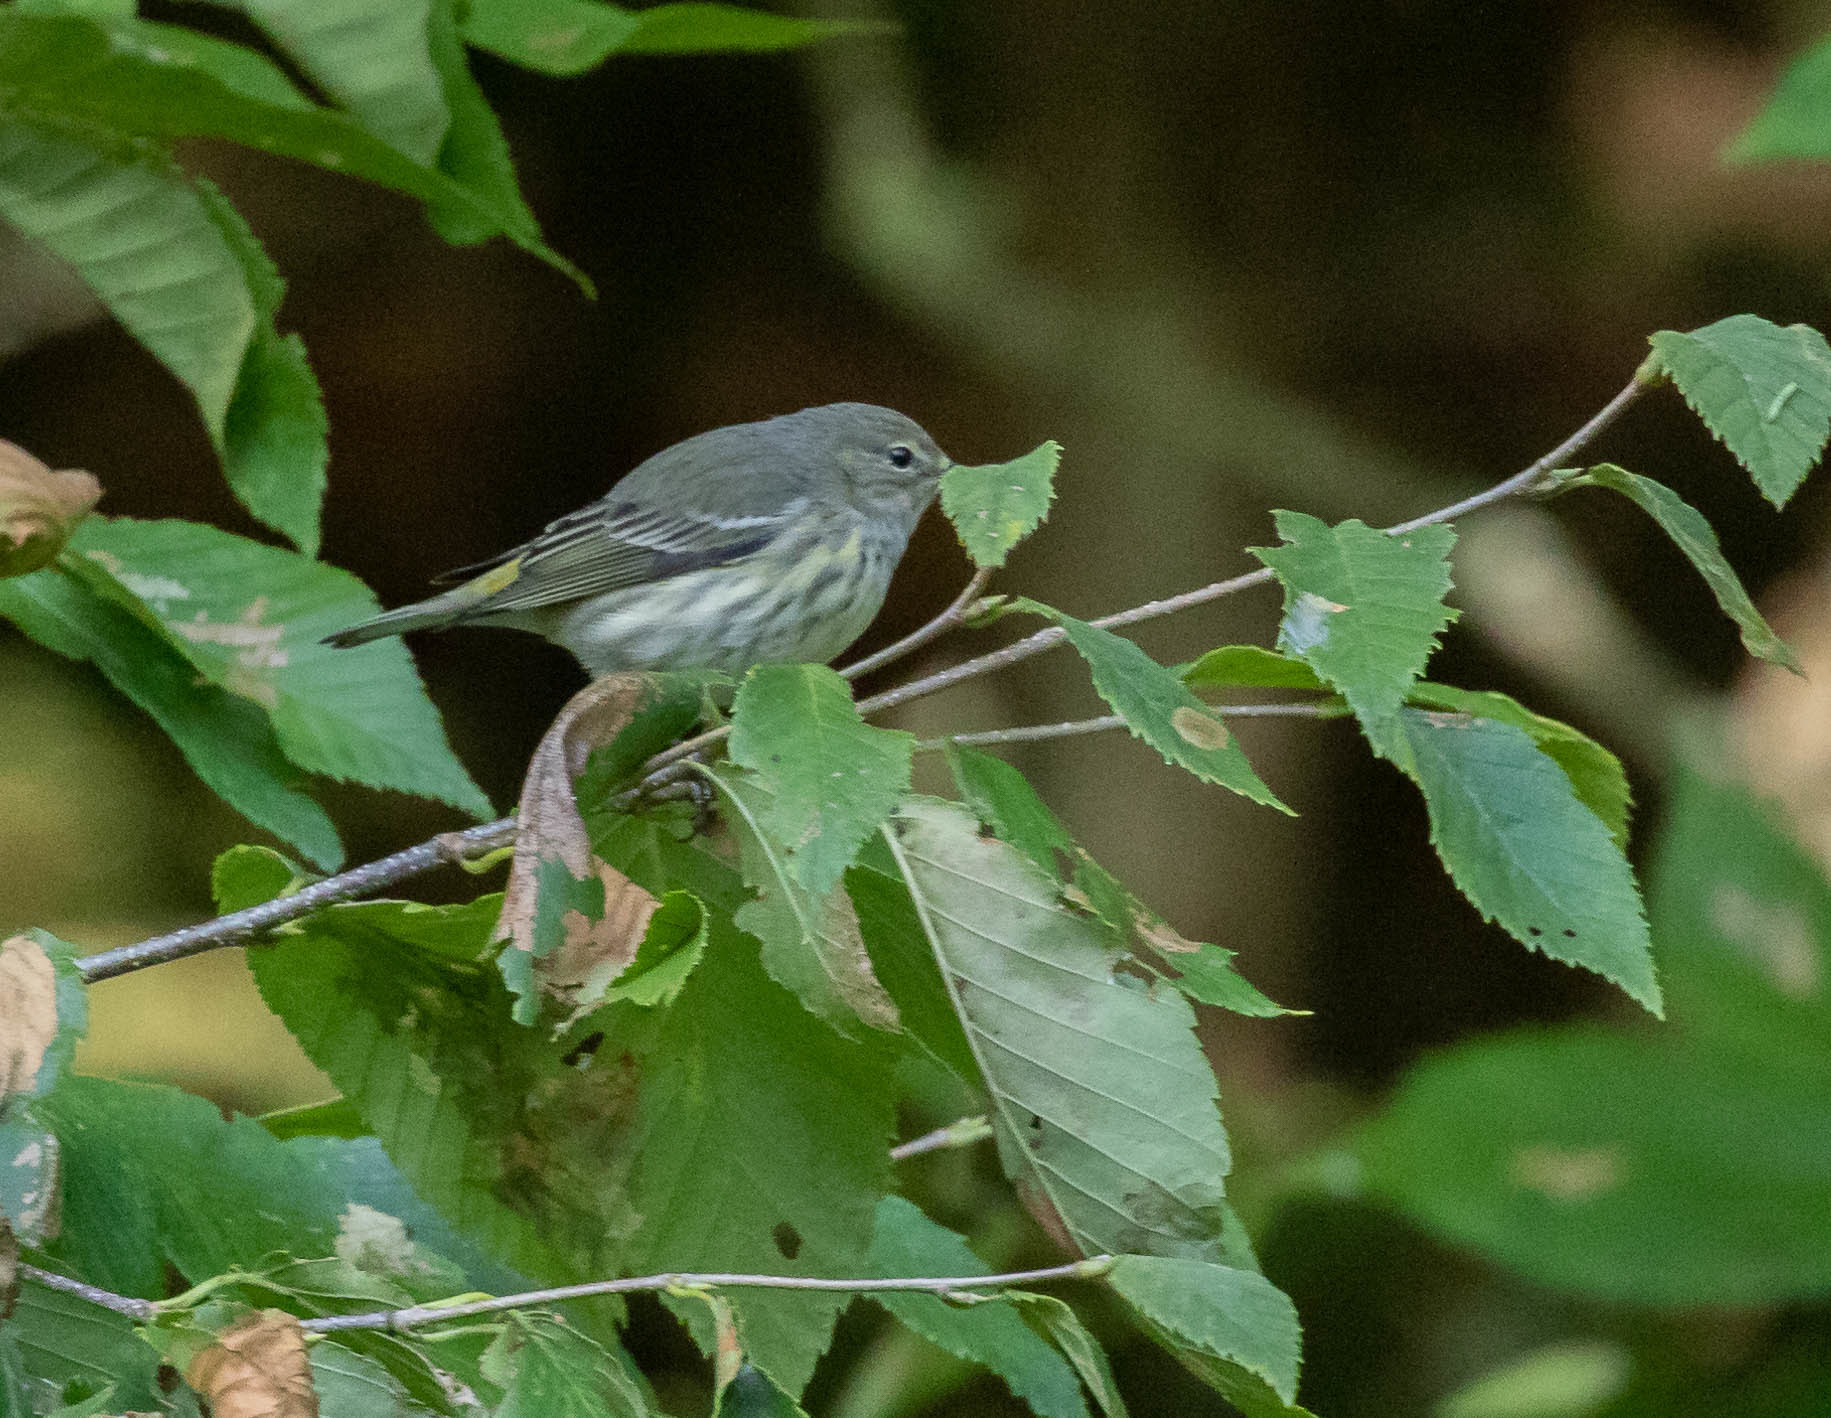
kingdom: Animalia
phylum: Chordata
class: Aves
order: Passeriformes
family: Parulidae
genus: Setophaga
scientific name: Setophaga tigrina
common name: Cape may warbler
